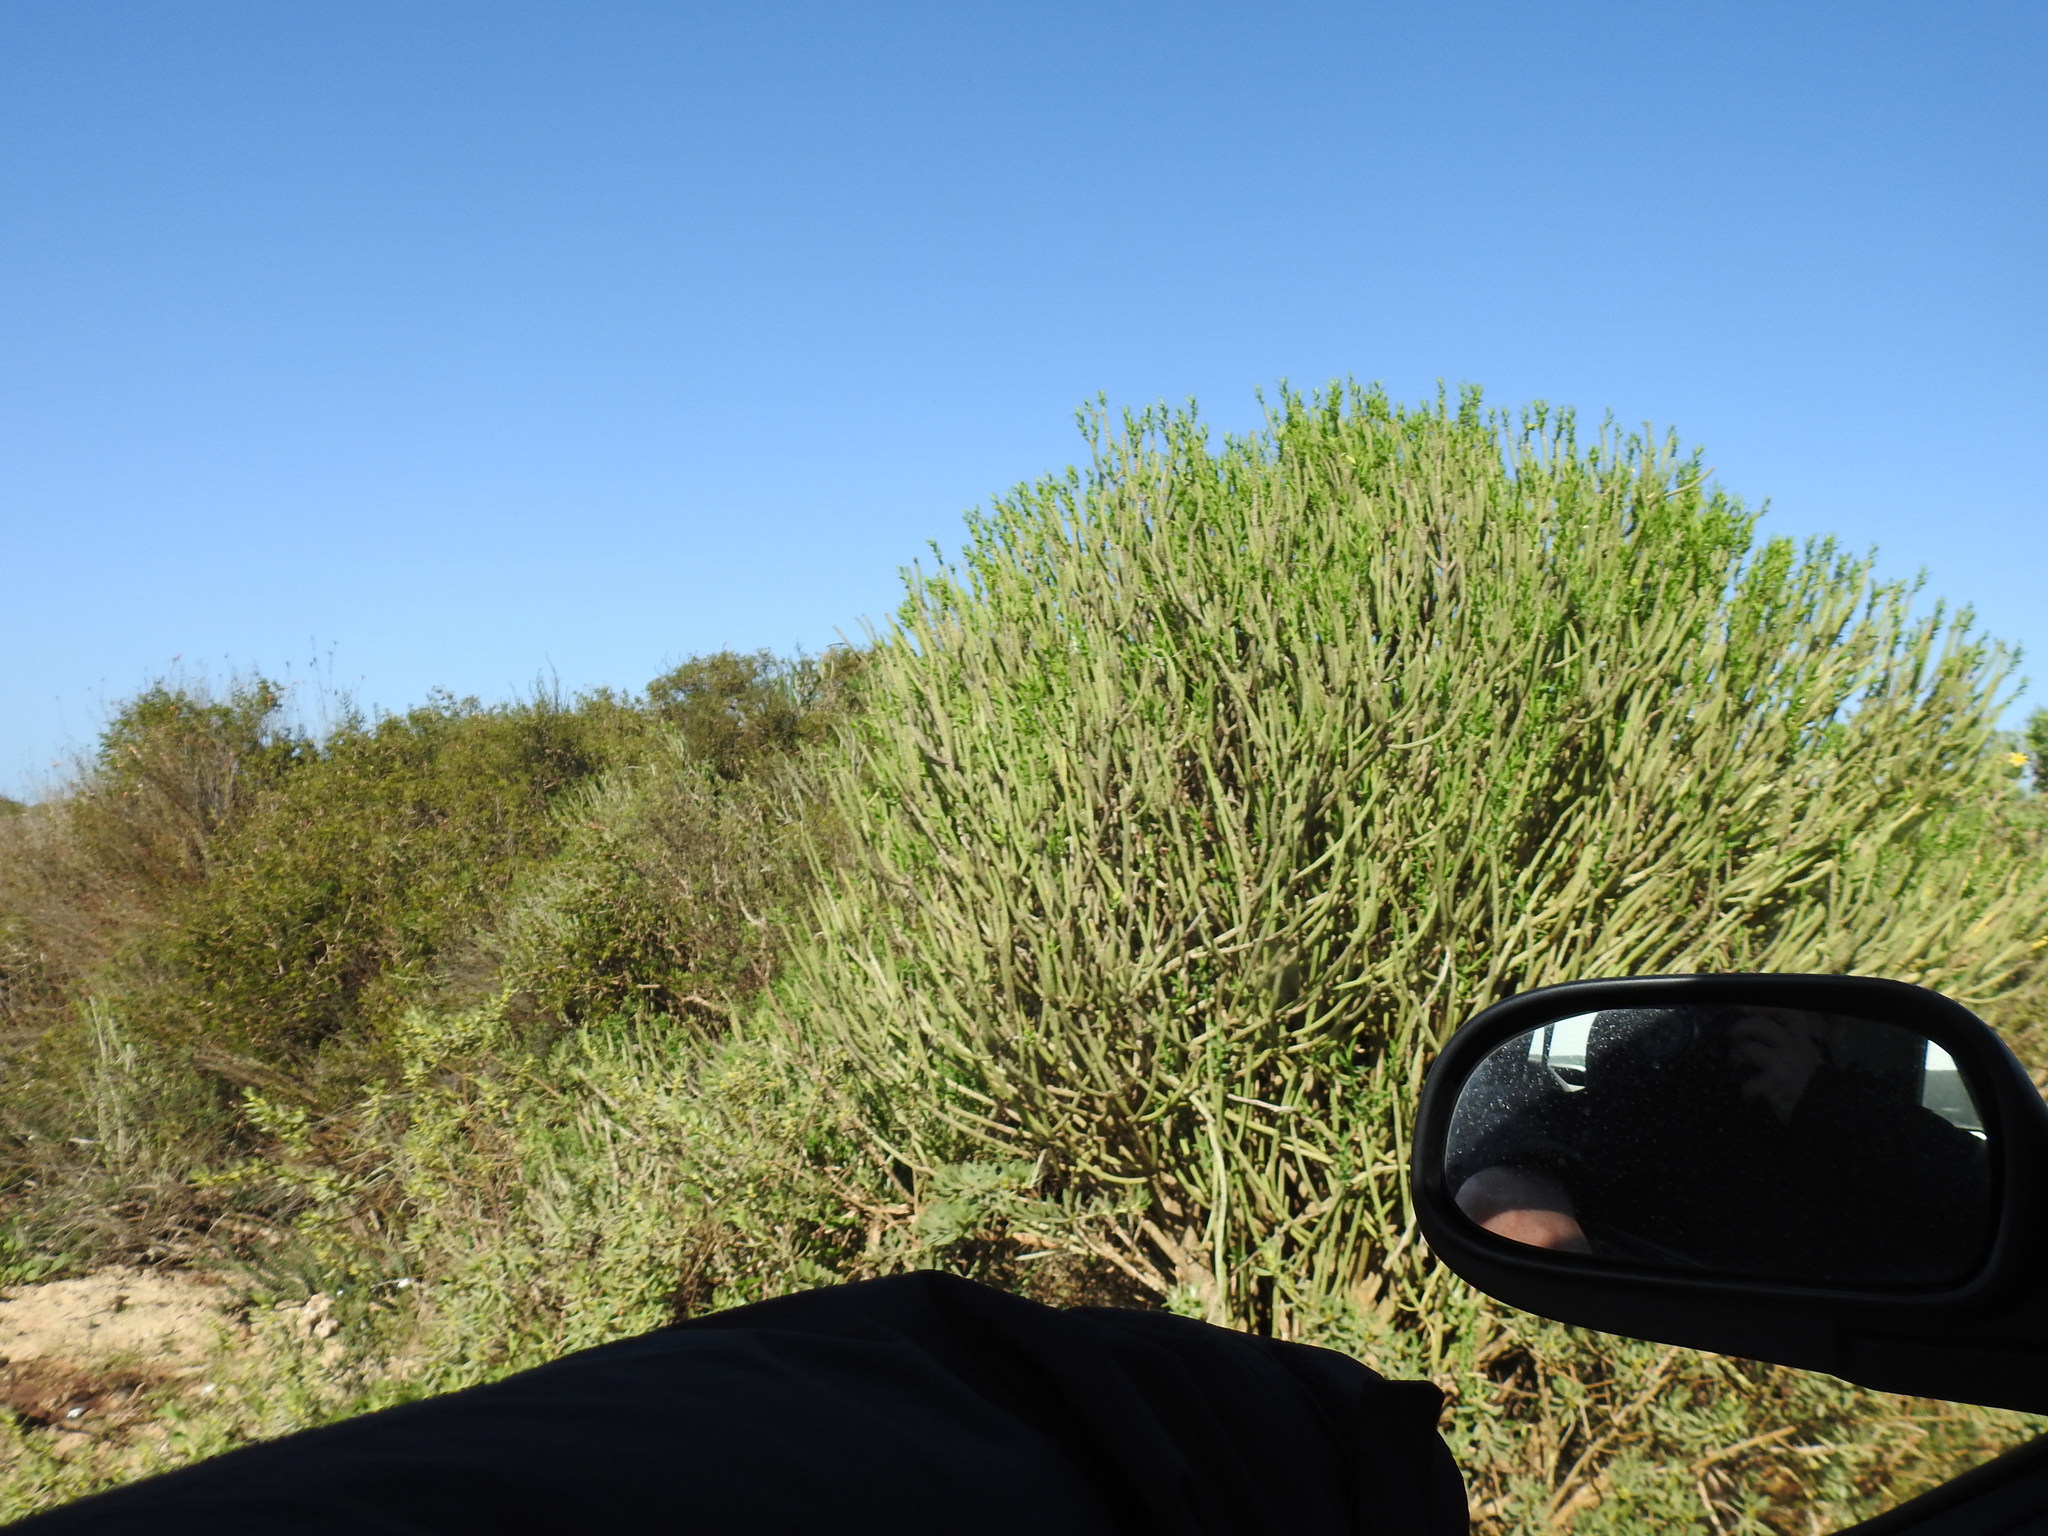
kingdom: Plantae
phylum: Tracheophyta
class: Magnoliopsida
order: Malpighiales
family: Euphorbiaceae
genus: Euphorbia
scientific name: Euphorbia mauritanica
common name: Jackal's-food
